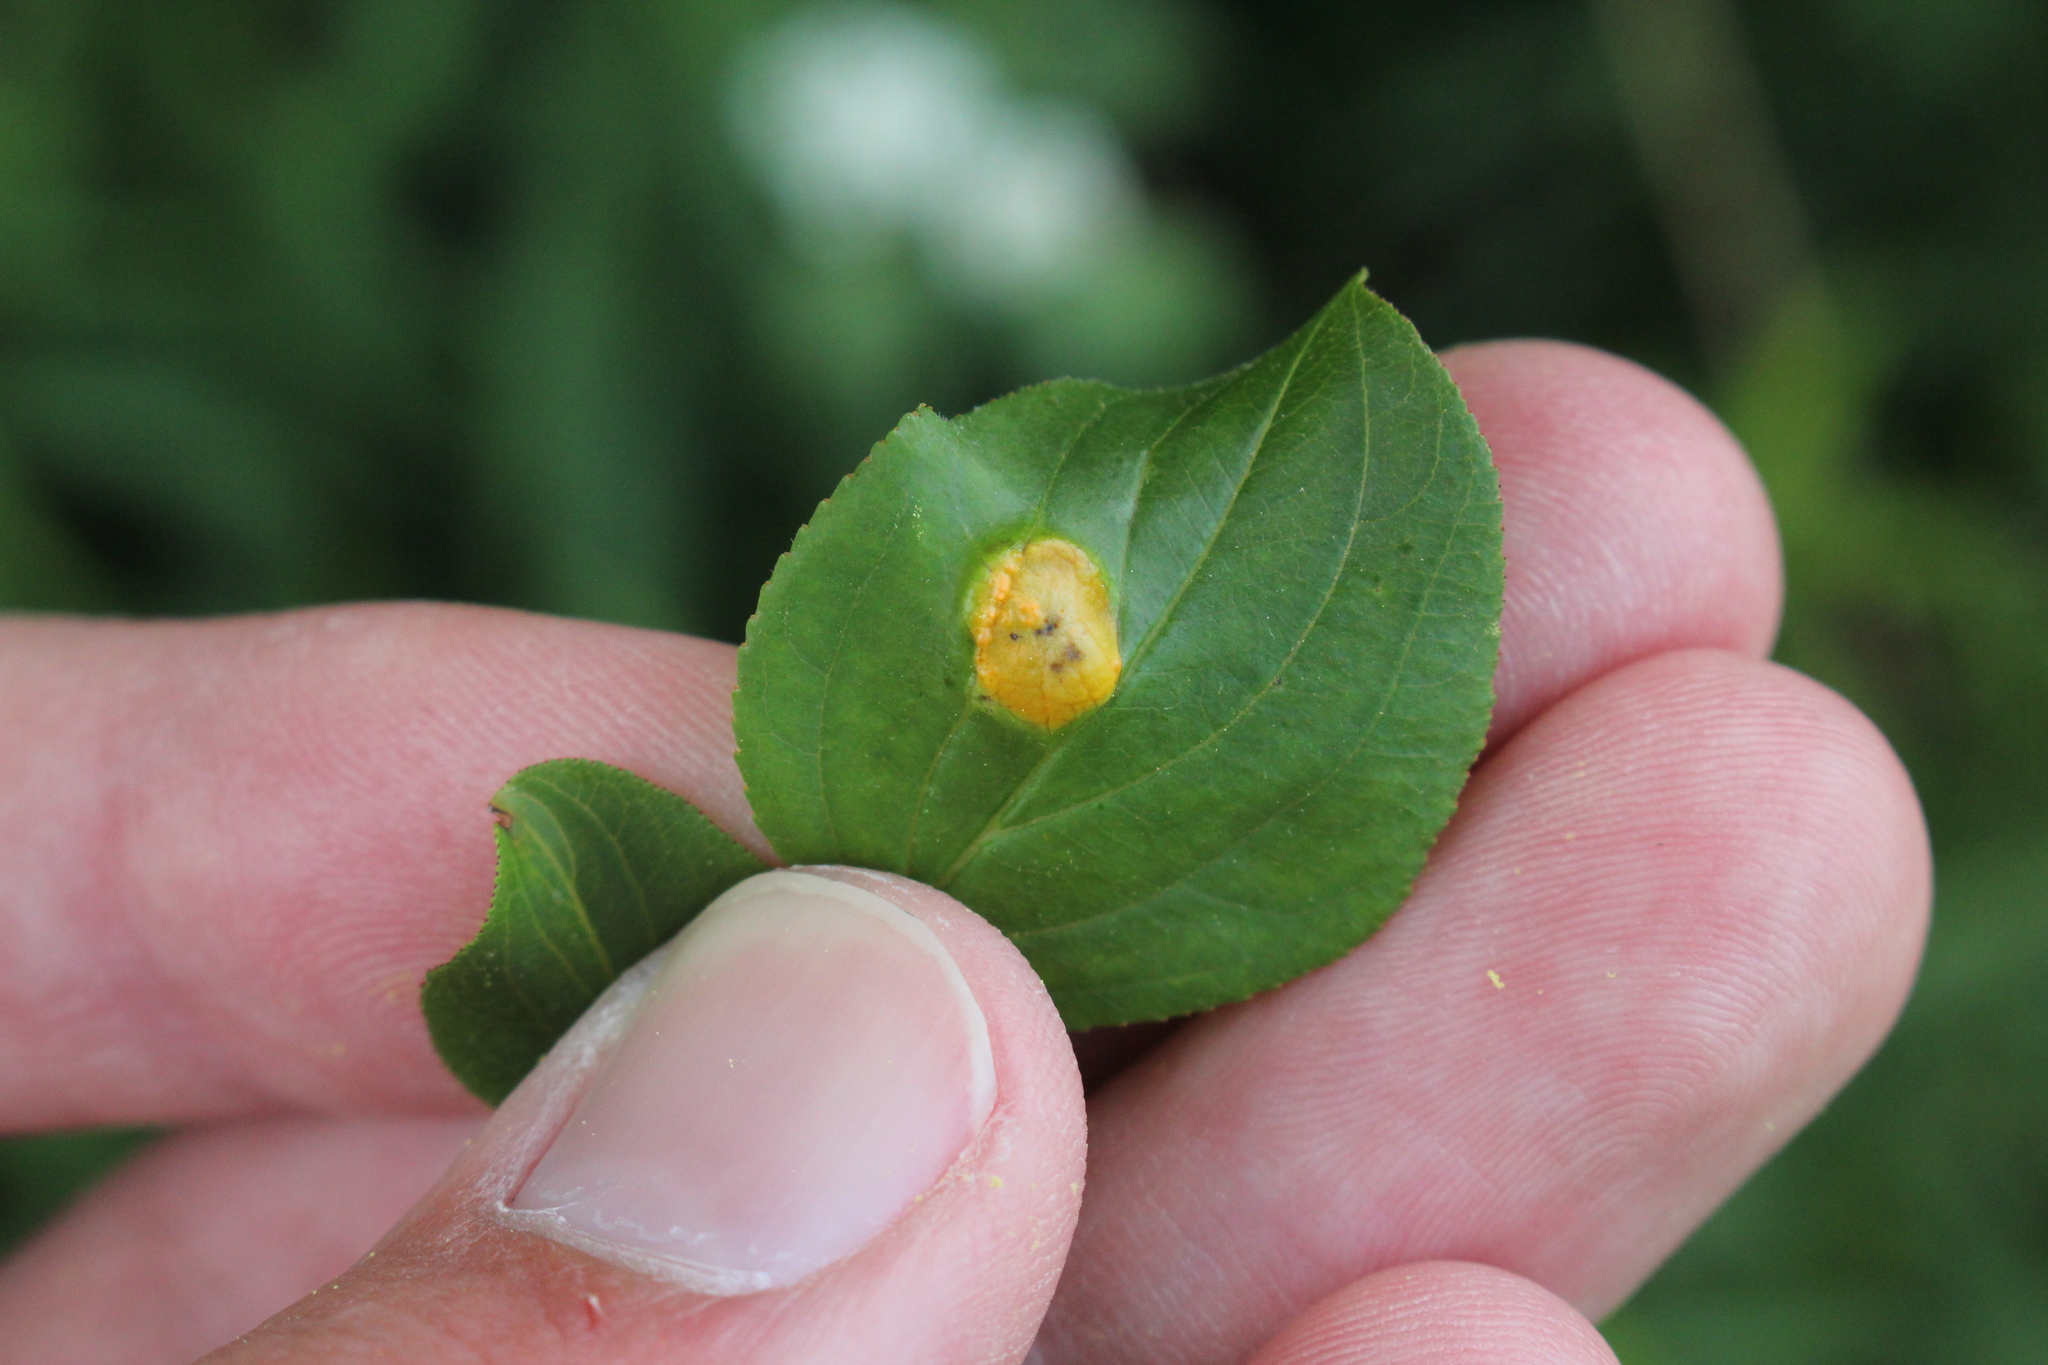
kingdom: Fungi
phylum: Basidiomycota
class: Pucciniomycetes
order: Pucciniales
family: Pucciniaceae
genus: Puccinia
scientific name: Puccinia coronata
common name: Crown rust
